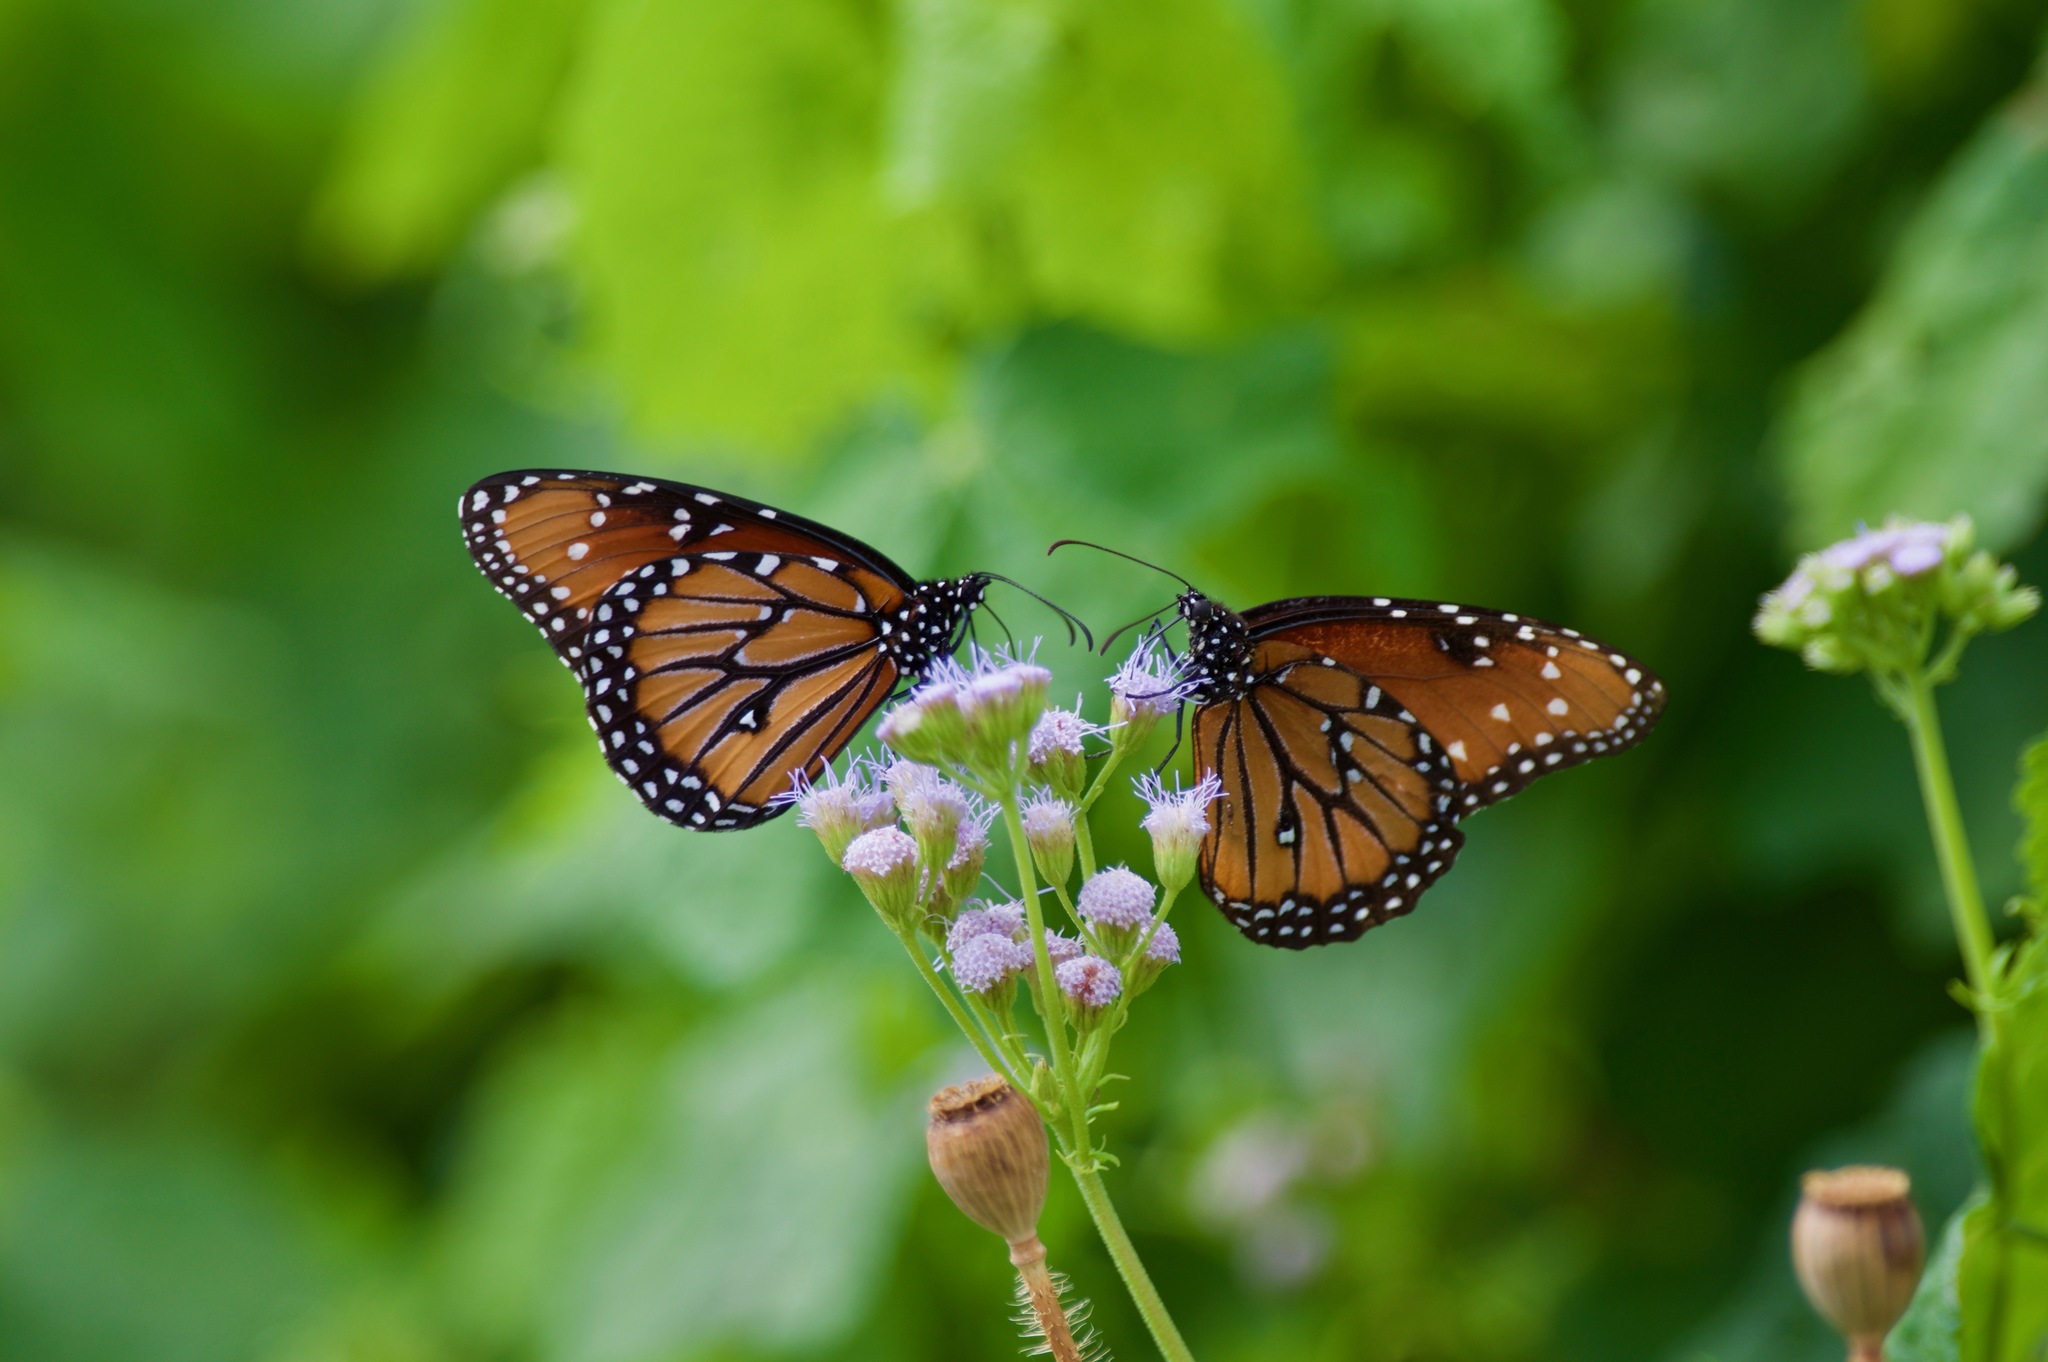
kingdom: Animalia
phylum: Arthropoda
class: Insecta
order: Lepidoptera
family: Nymphalidae
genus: Danaus
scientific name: Danaus gilippus
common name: Queen
